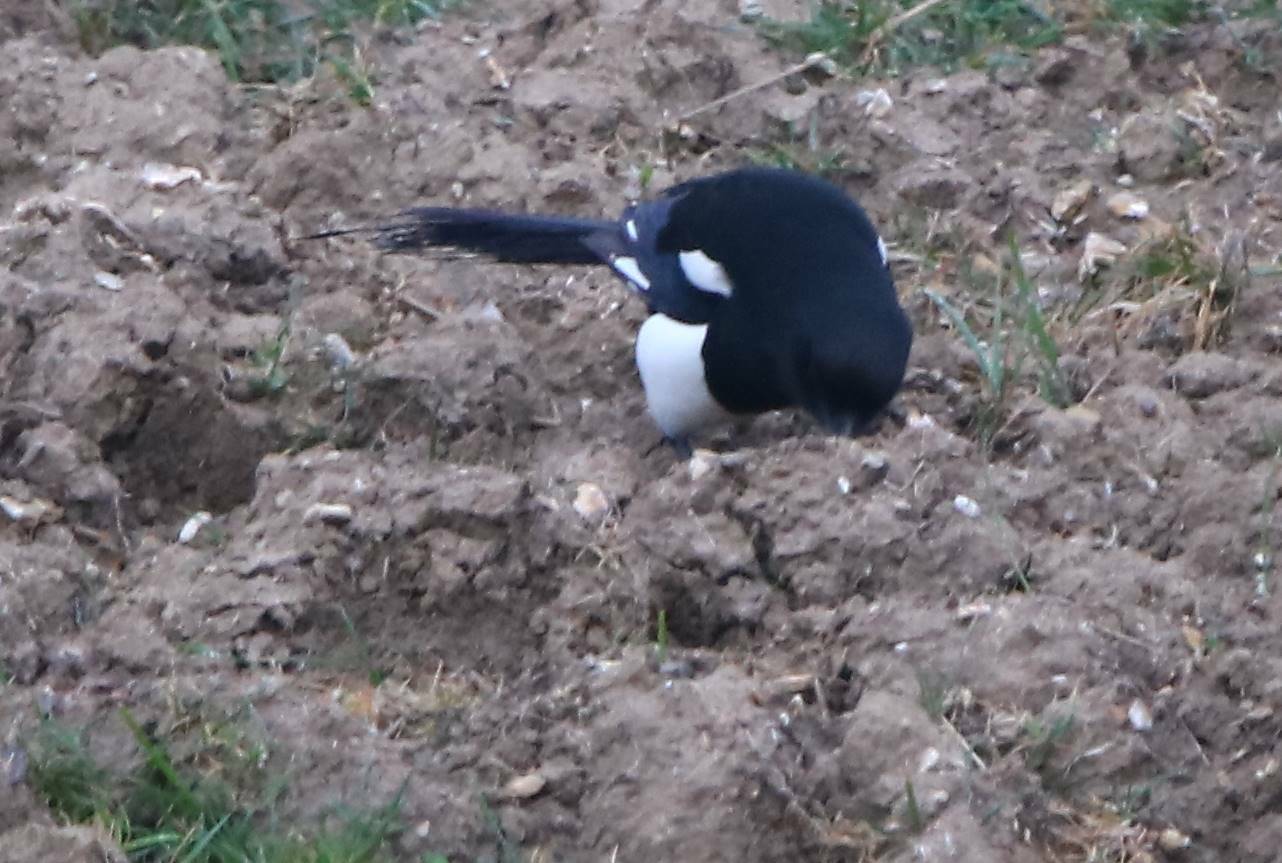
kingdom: Animalia
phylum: Chordata
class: Aves
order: Passeriformes
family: Corvidae
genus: Pica
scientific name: Pica mauritanica
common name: Maghreb magpie
